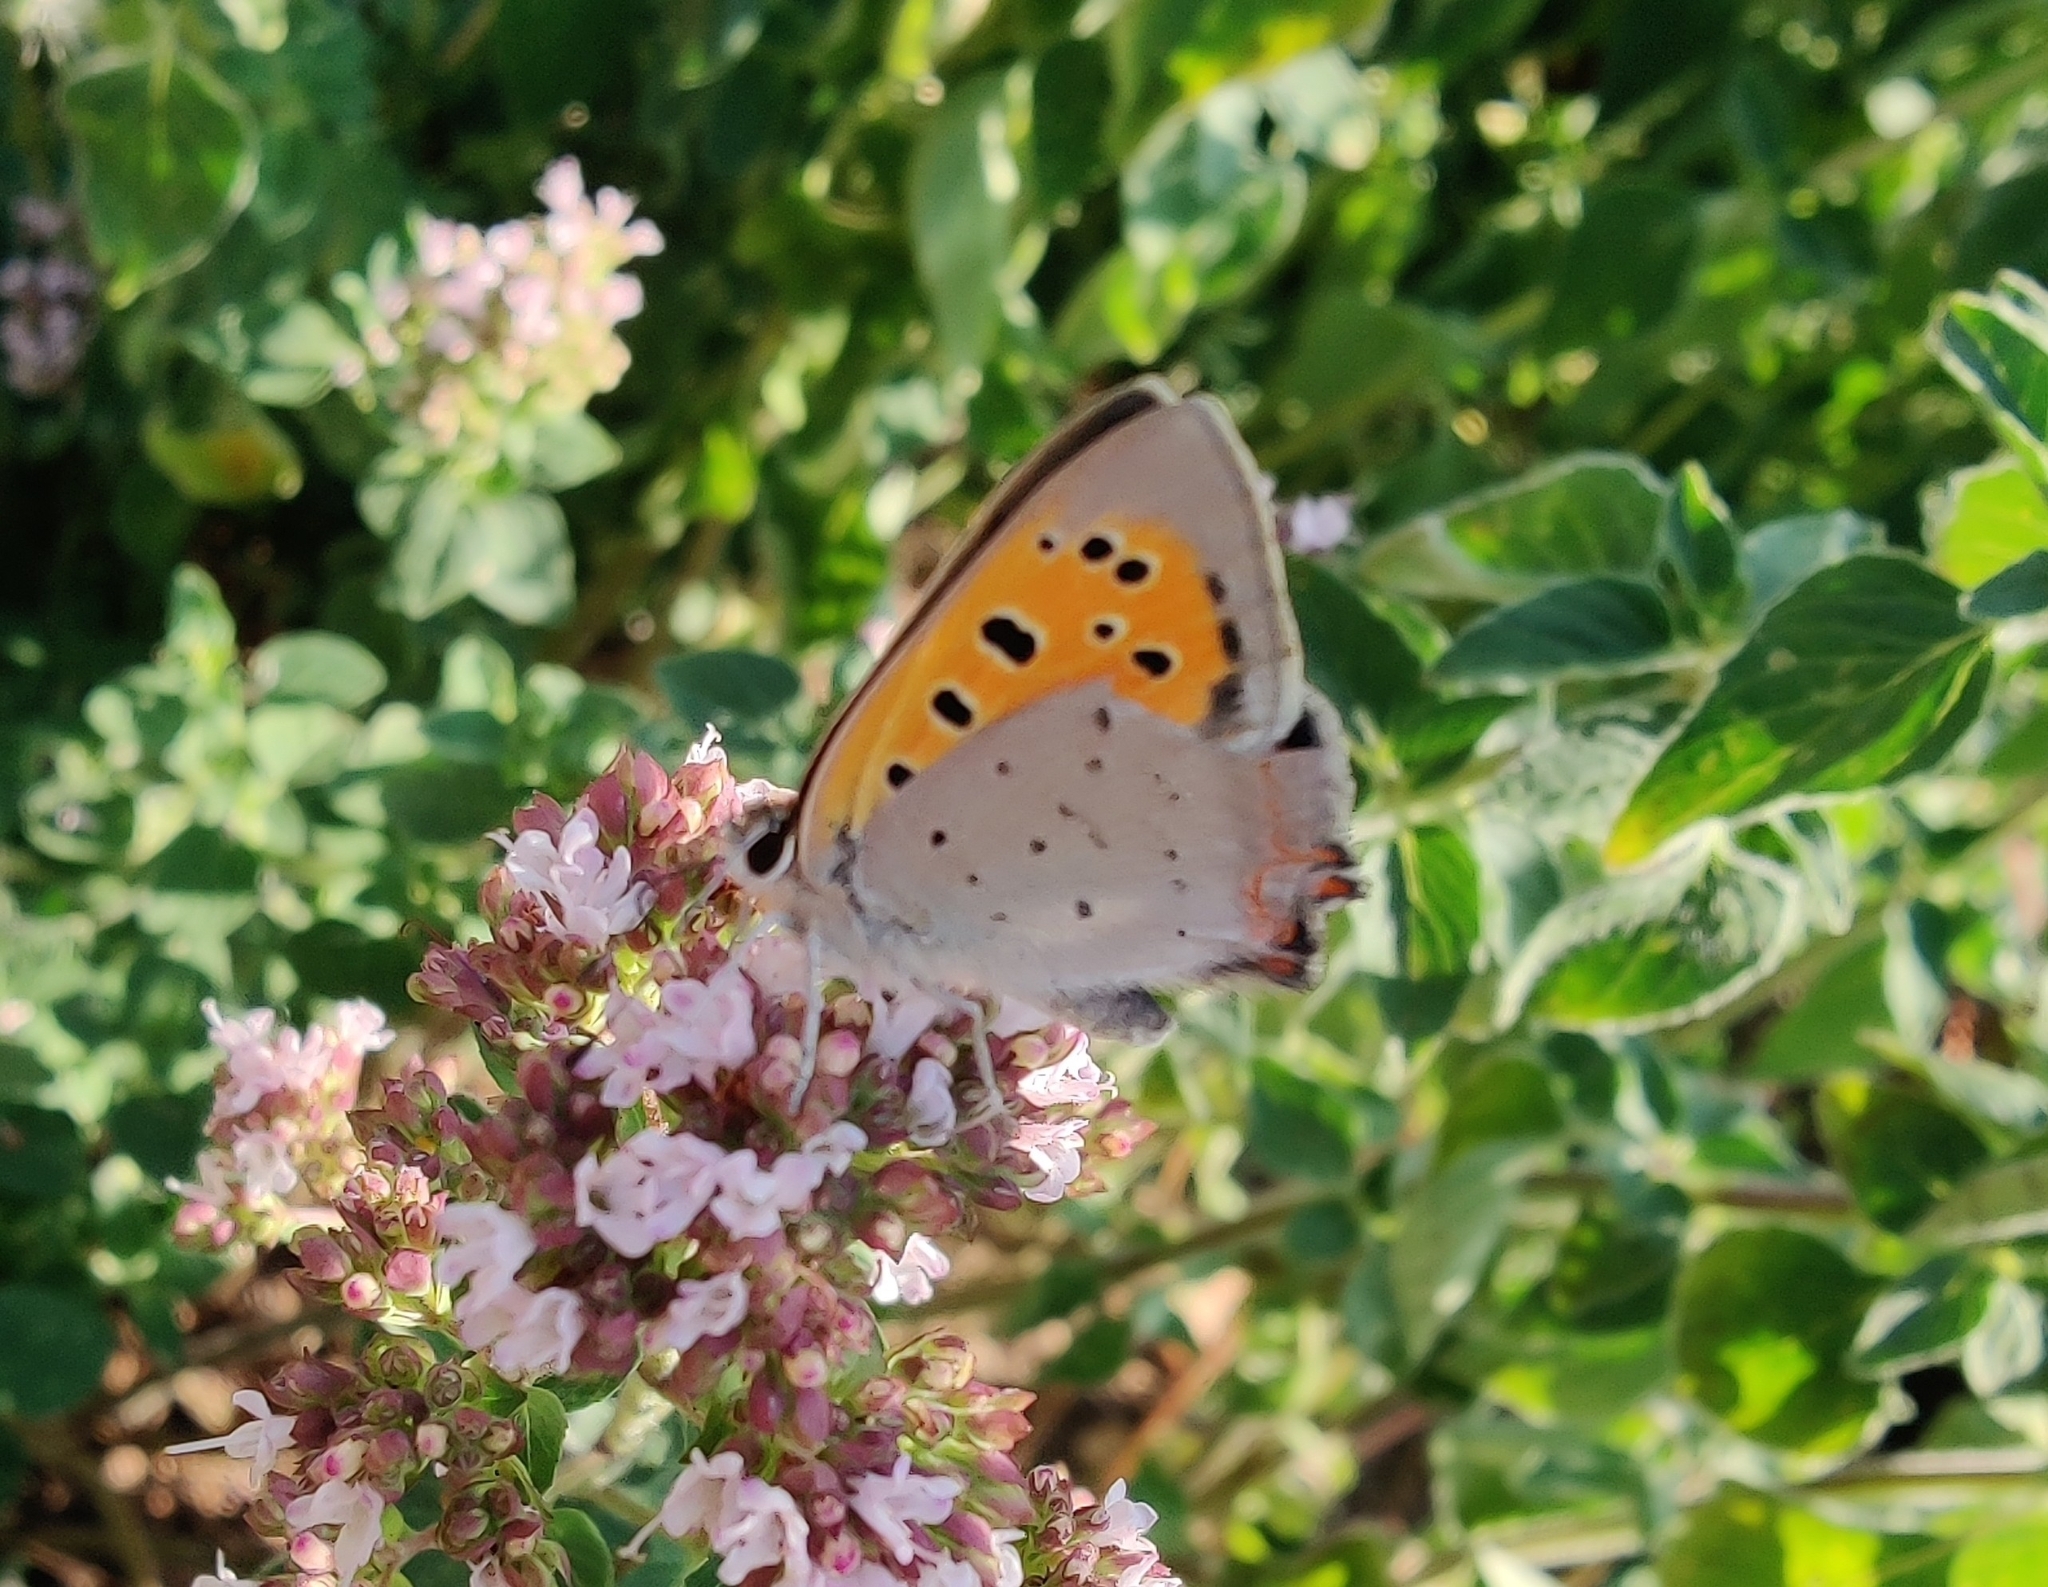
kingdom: Animalia
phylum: Arthropoda
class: Insecta
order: Lepidoptera
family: Lycaenidae
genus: Lycaena
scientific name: Lycaena phlaeas
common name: Small copper
